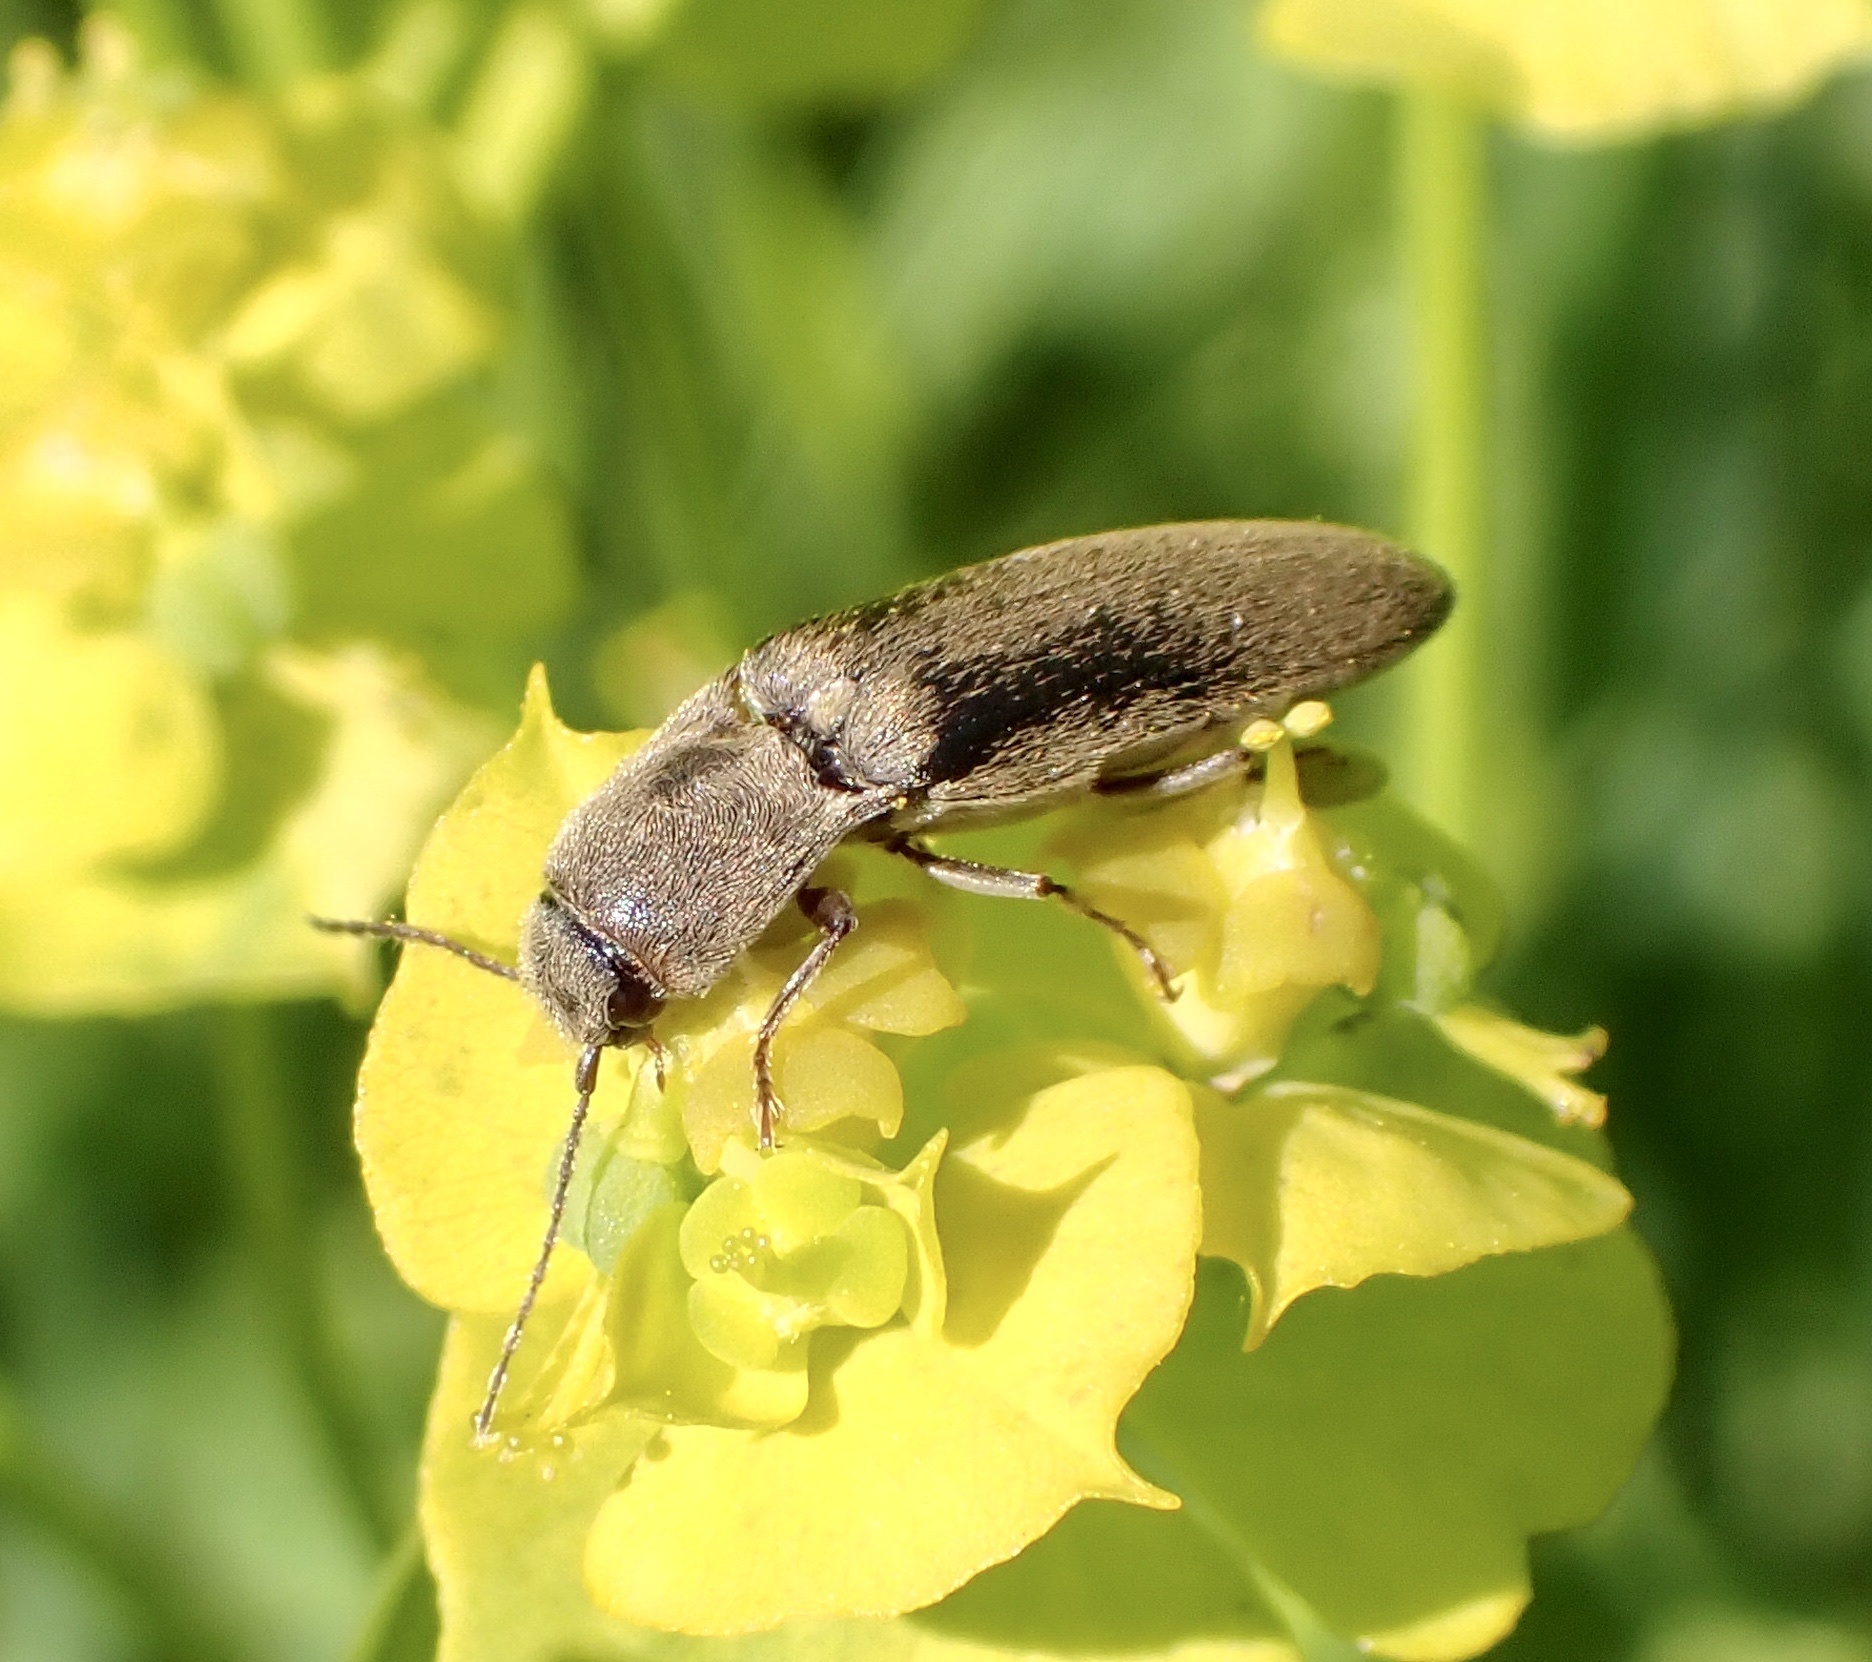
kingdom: Animalia
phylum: Arthropoda
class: Insecta
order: Coleoptera
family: Elateridae
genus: Synaptus
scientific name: Synaptus filiformis
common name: Hairy click beetle
